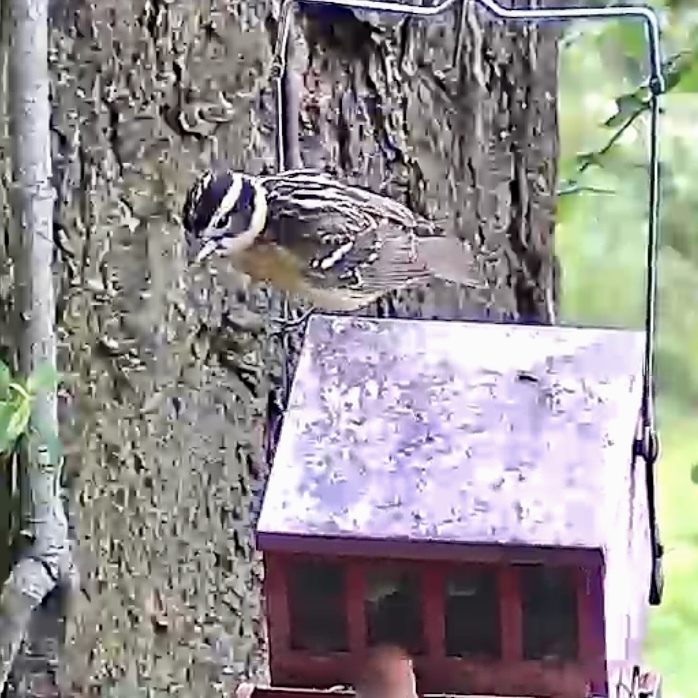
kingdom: Animalia
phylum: Chordata
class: Aves
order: Passeriformes
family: Cardinalidae
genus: Pheucticus
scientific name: Pheucticus melanocephalus
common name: Black-headed grosbeak
